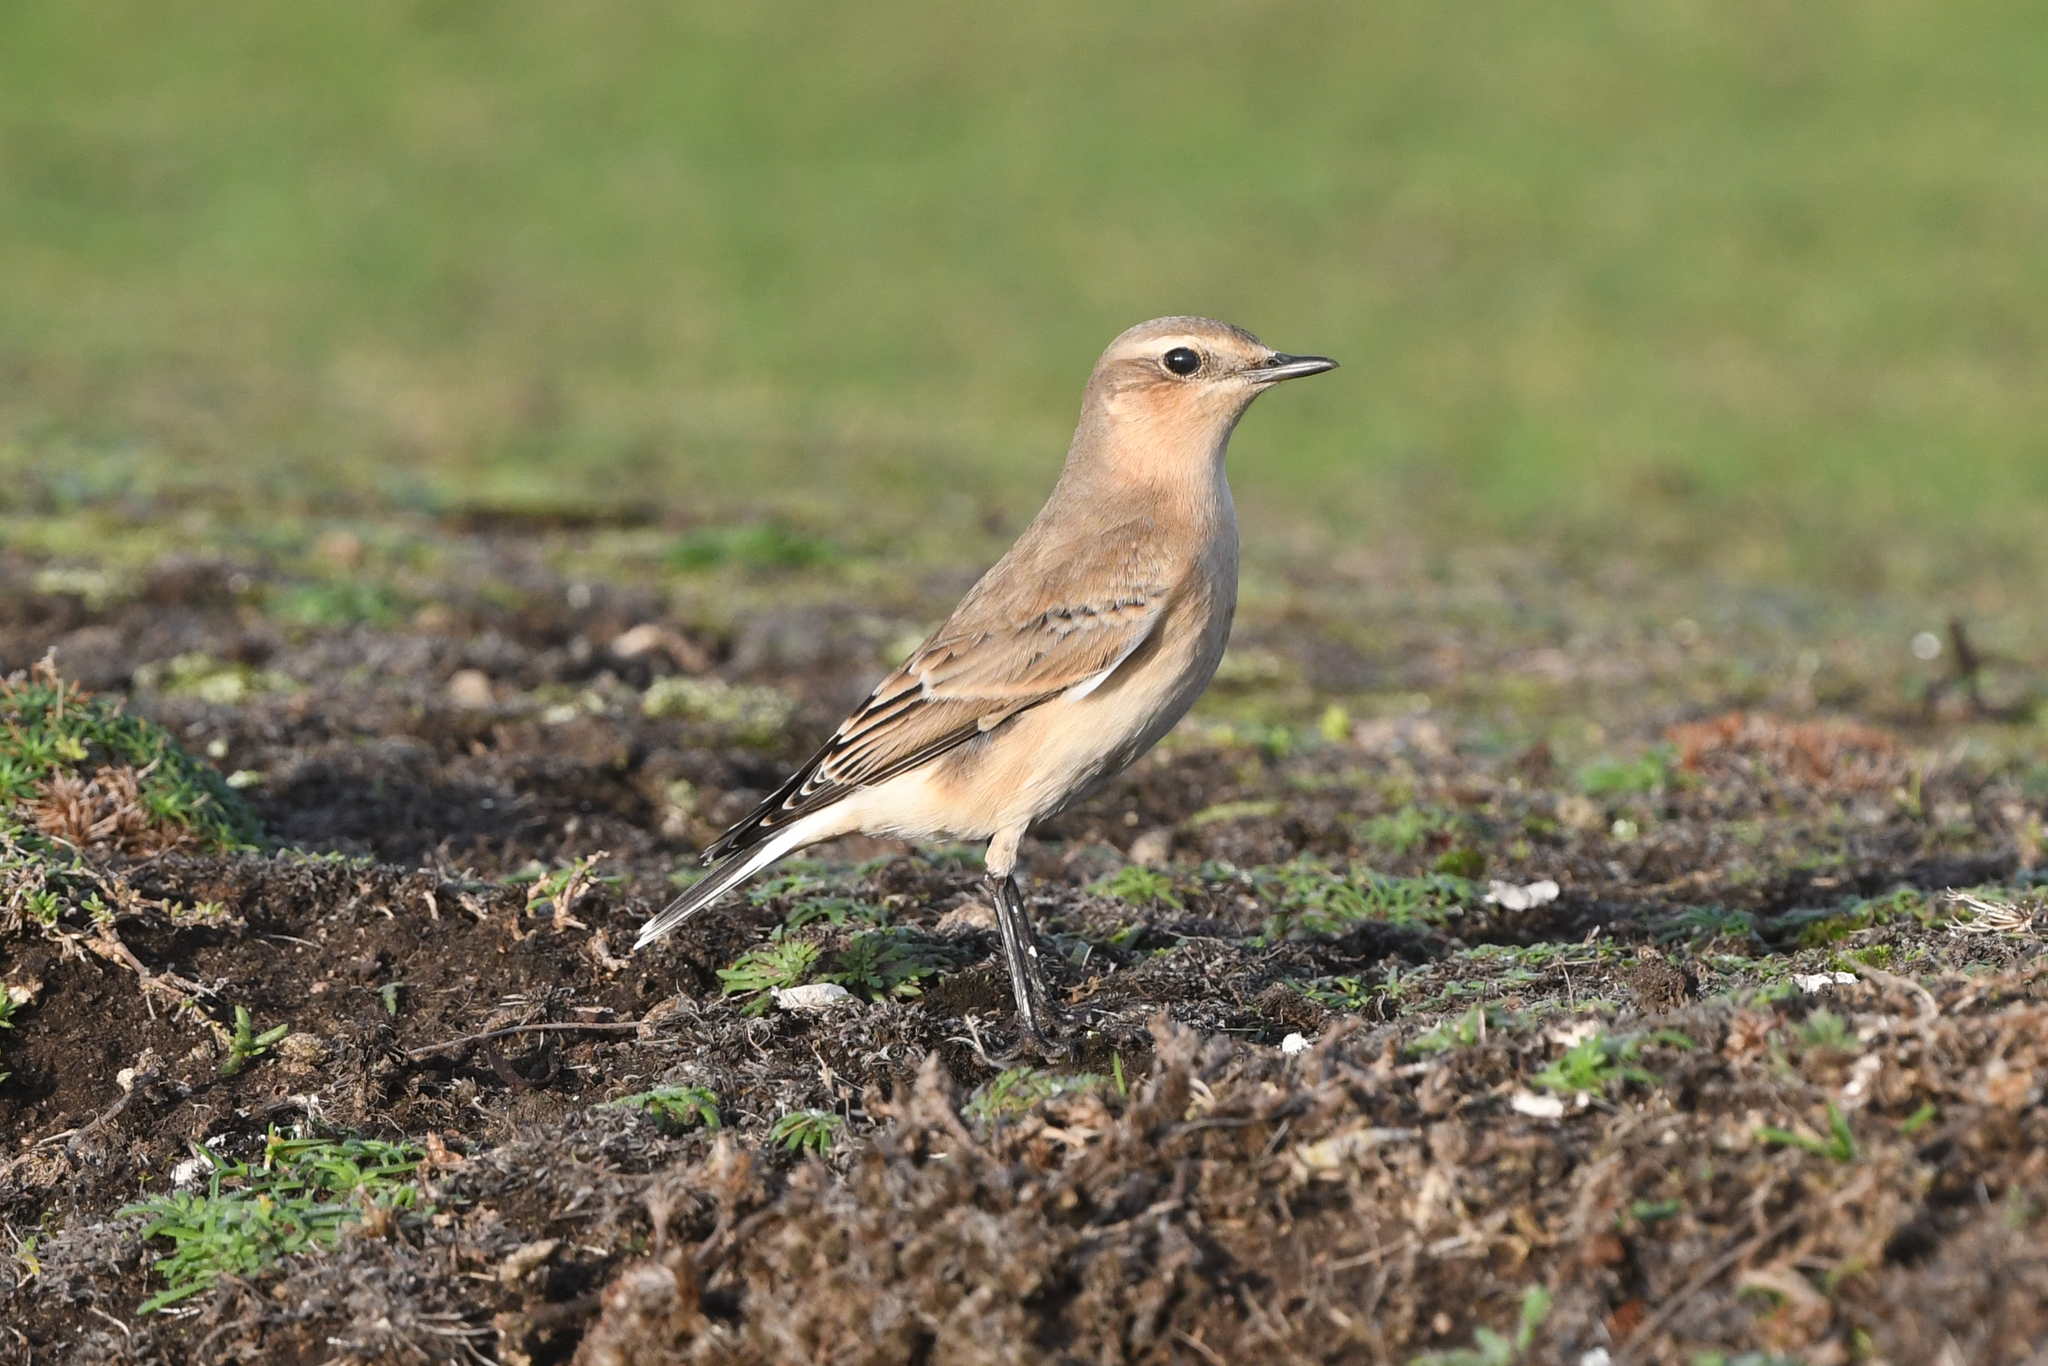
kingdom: Animalia
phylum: Chordata
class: Aves
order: Passeriformes
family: Muscicapidae
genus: Oenanthe
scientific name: Oenanthe oenanthe
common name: Northern wheatear
